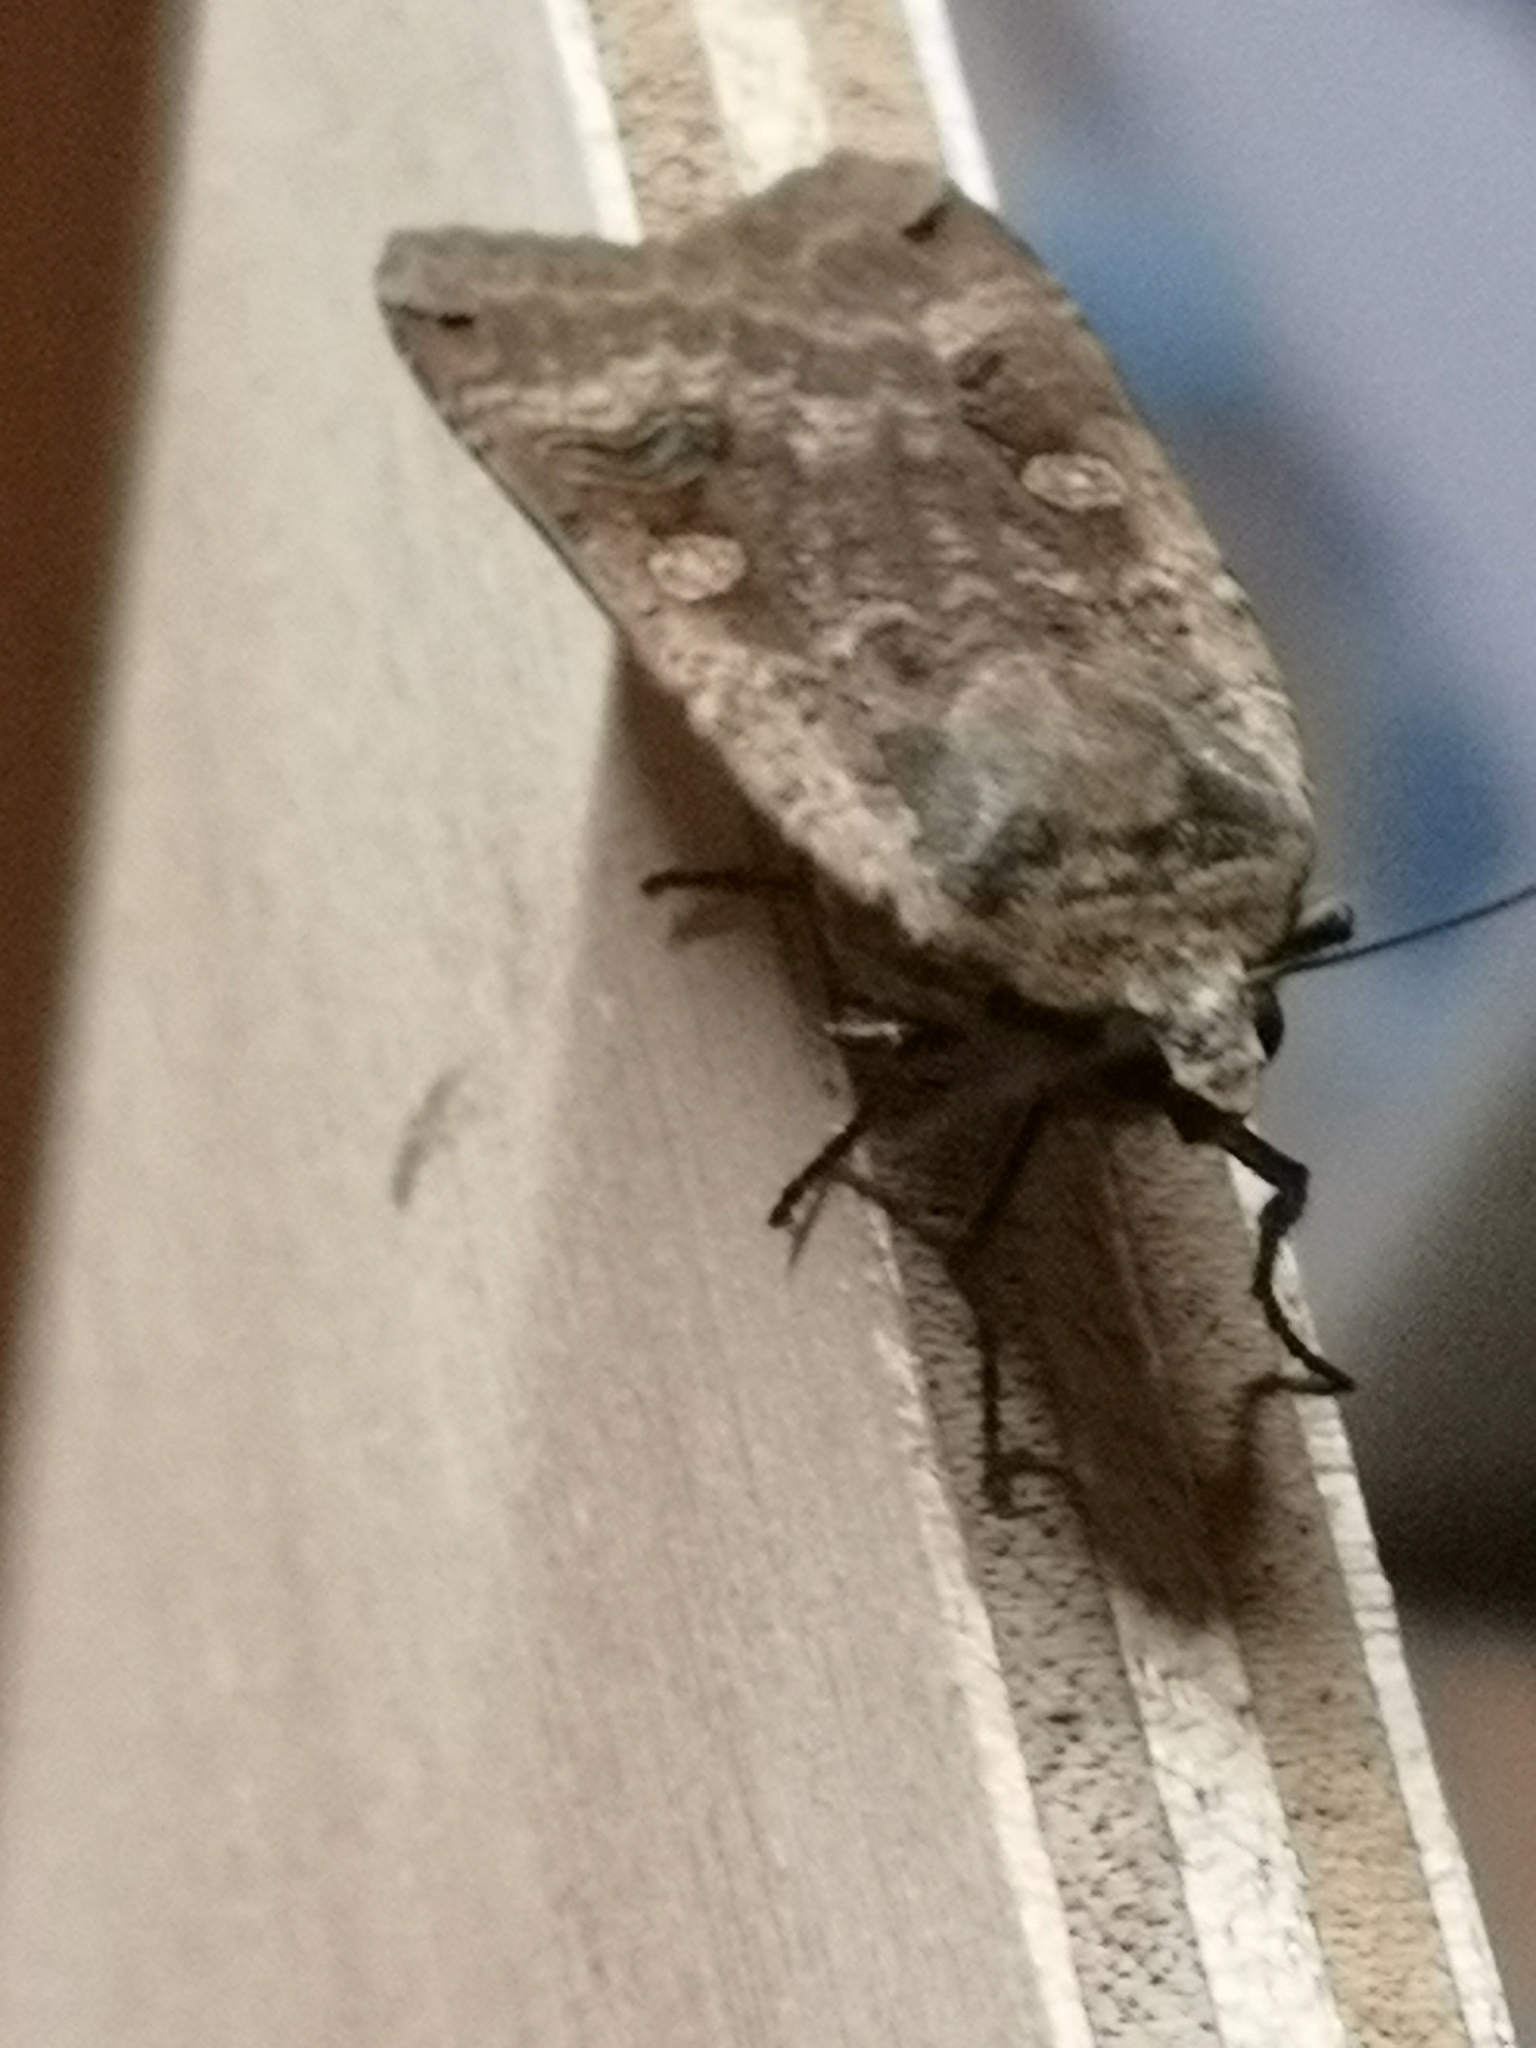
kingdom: Animalia
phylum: Arthropoda
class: Insecta
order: Lepidoptera
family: Noctuidae
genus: Noctua
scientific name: Noctua pronuba
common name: Large yellow underwing
